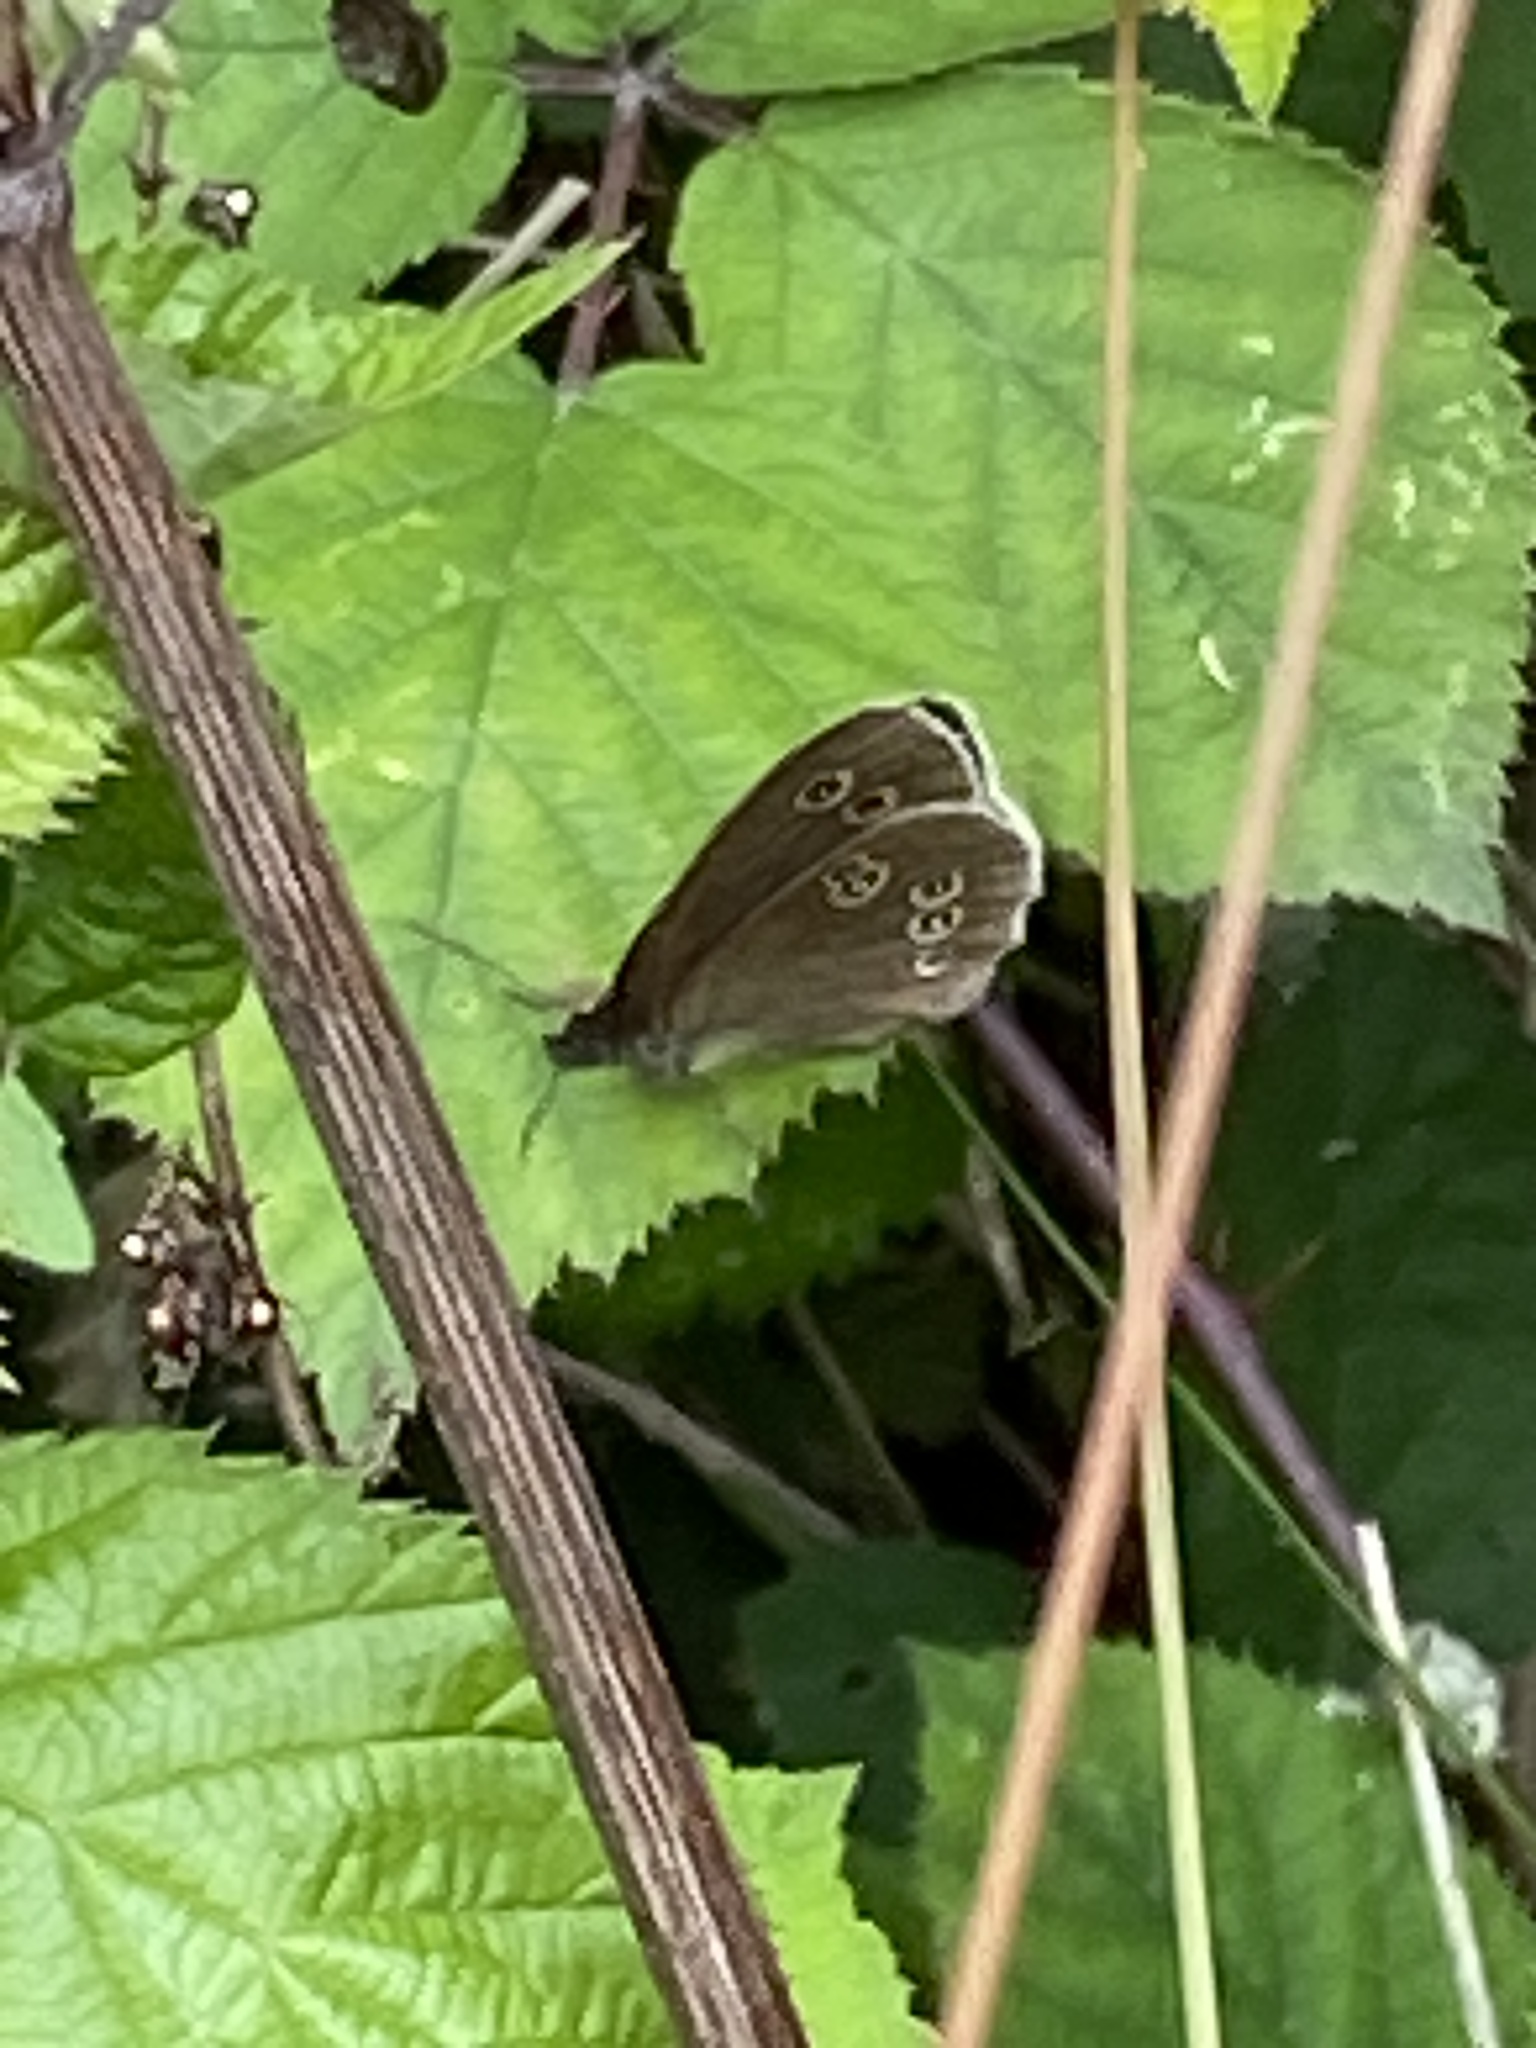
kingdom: Animalia
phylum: Arthropoda
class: Insecta
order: Lepidoptera
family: Nymphalidae
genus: Aphantopus
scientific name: Aphantopus hyperantus
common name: Ringlet
